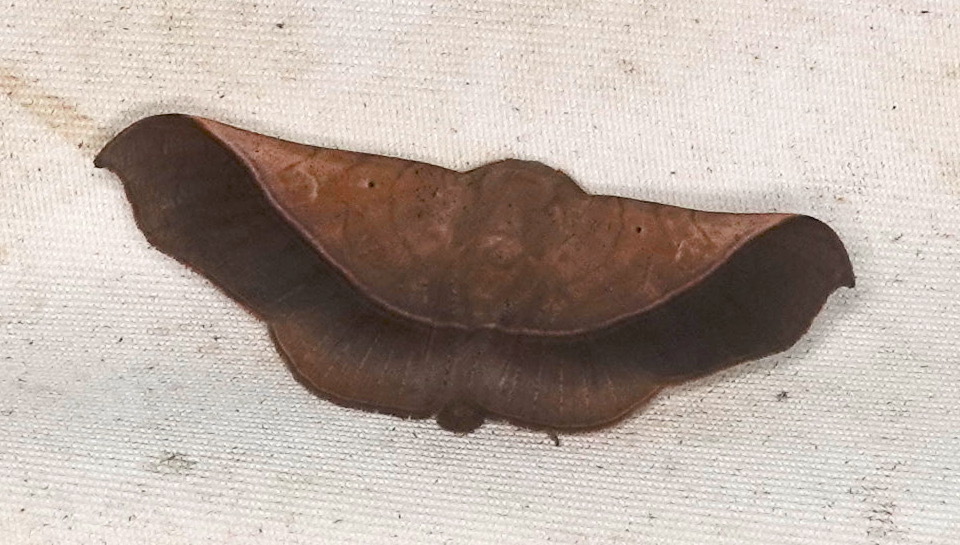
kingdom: Animalia
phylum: Arthropoda
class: Insecta
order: Lepidoptera
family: Erebidae
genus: Chilkasa
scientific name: Chilkasa falcata
